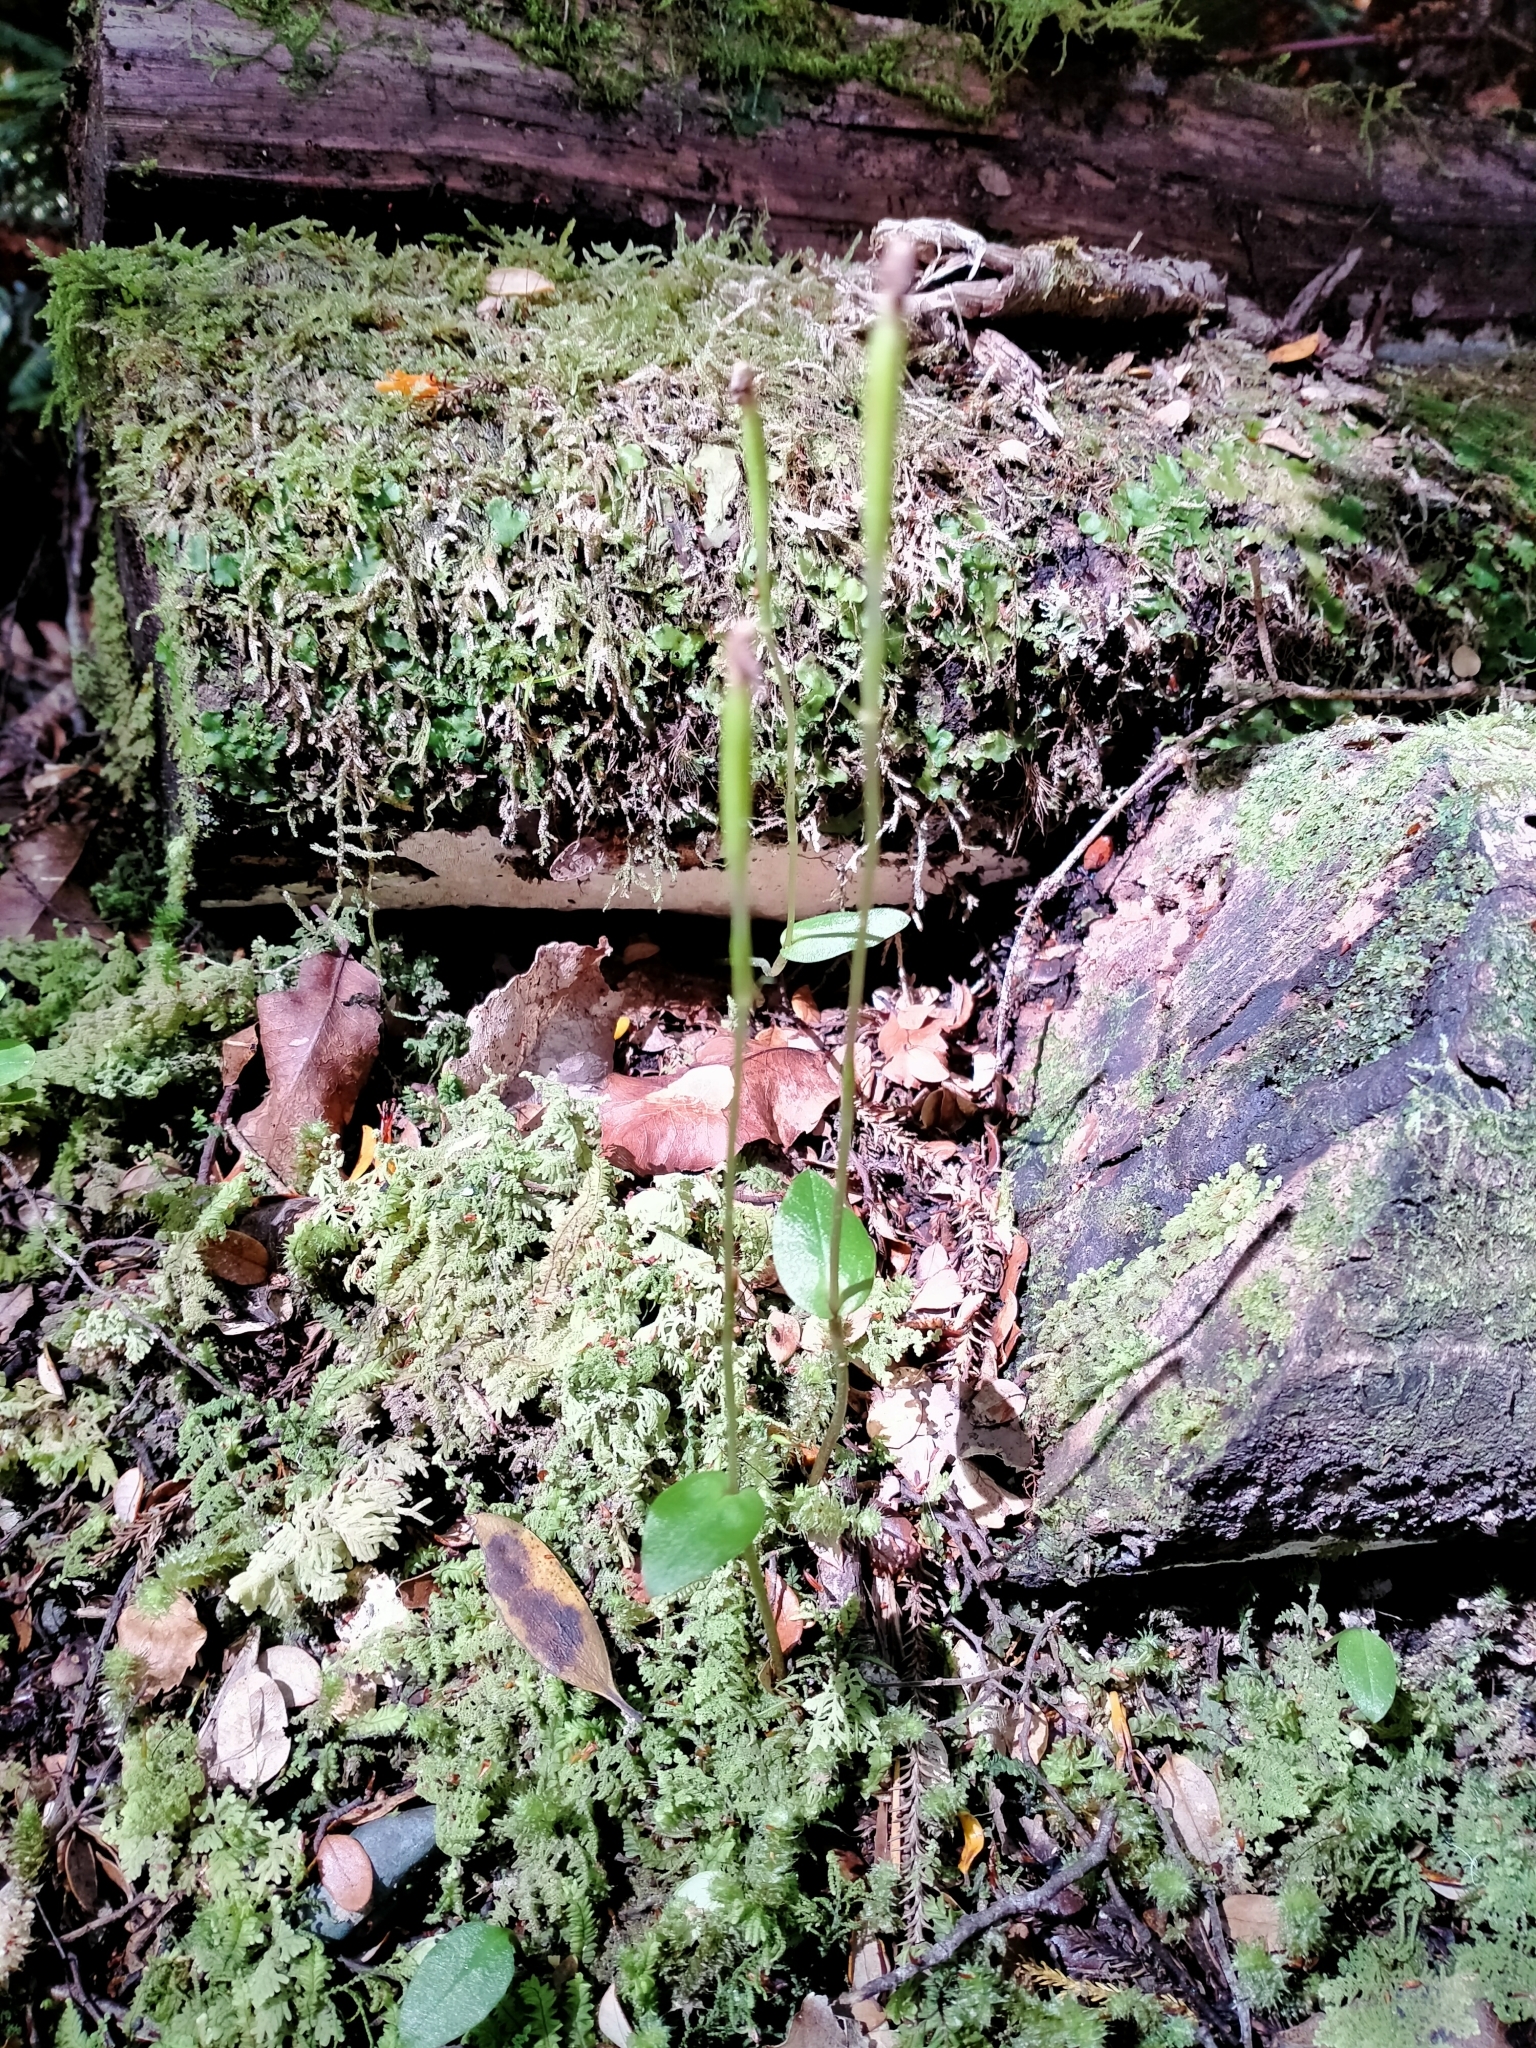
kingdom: Plantae
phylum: Tracheophyta
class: Liliopsida
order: Asparagales
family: Orchidaceae
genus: Adenochilus
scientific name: Adenochilus gracilis
